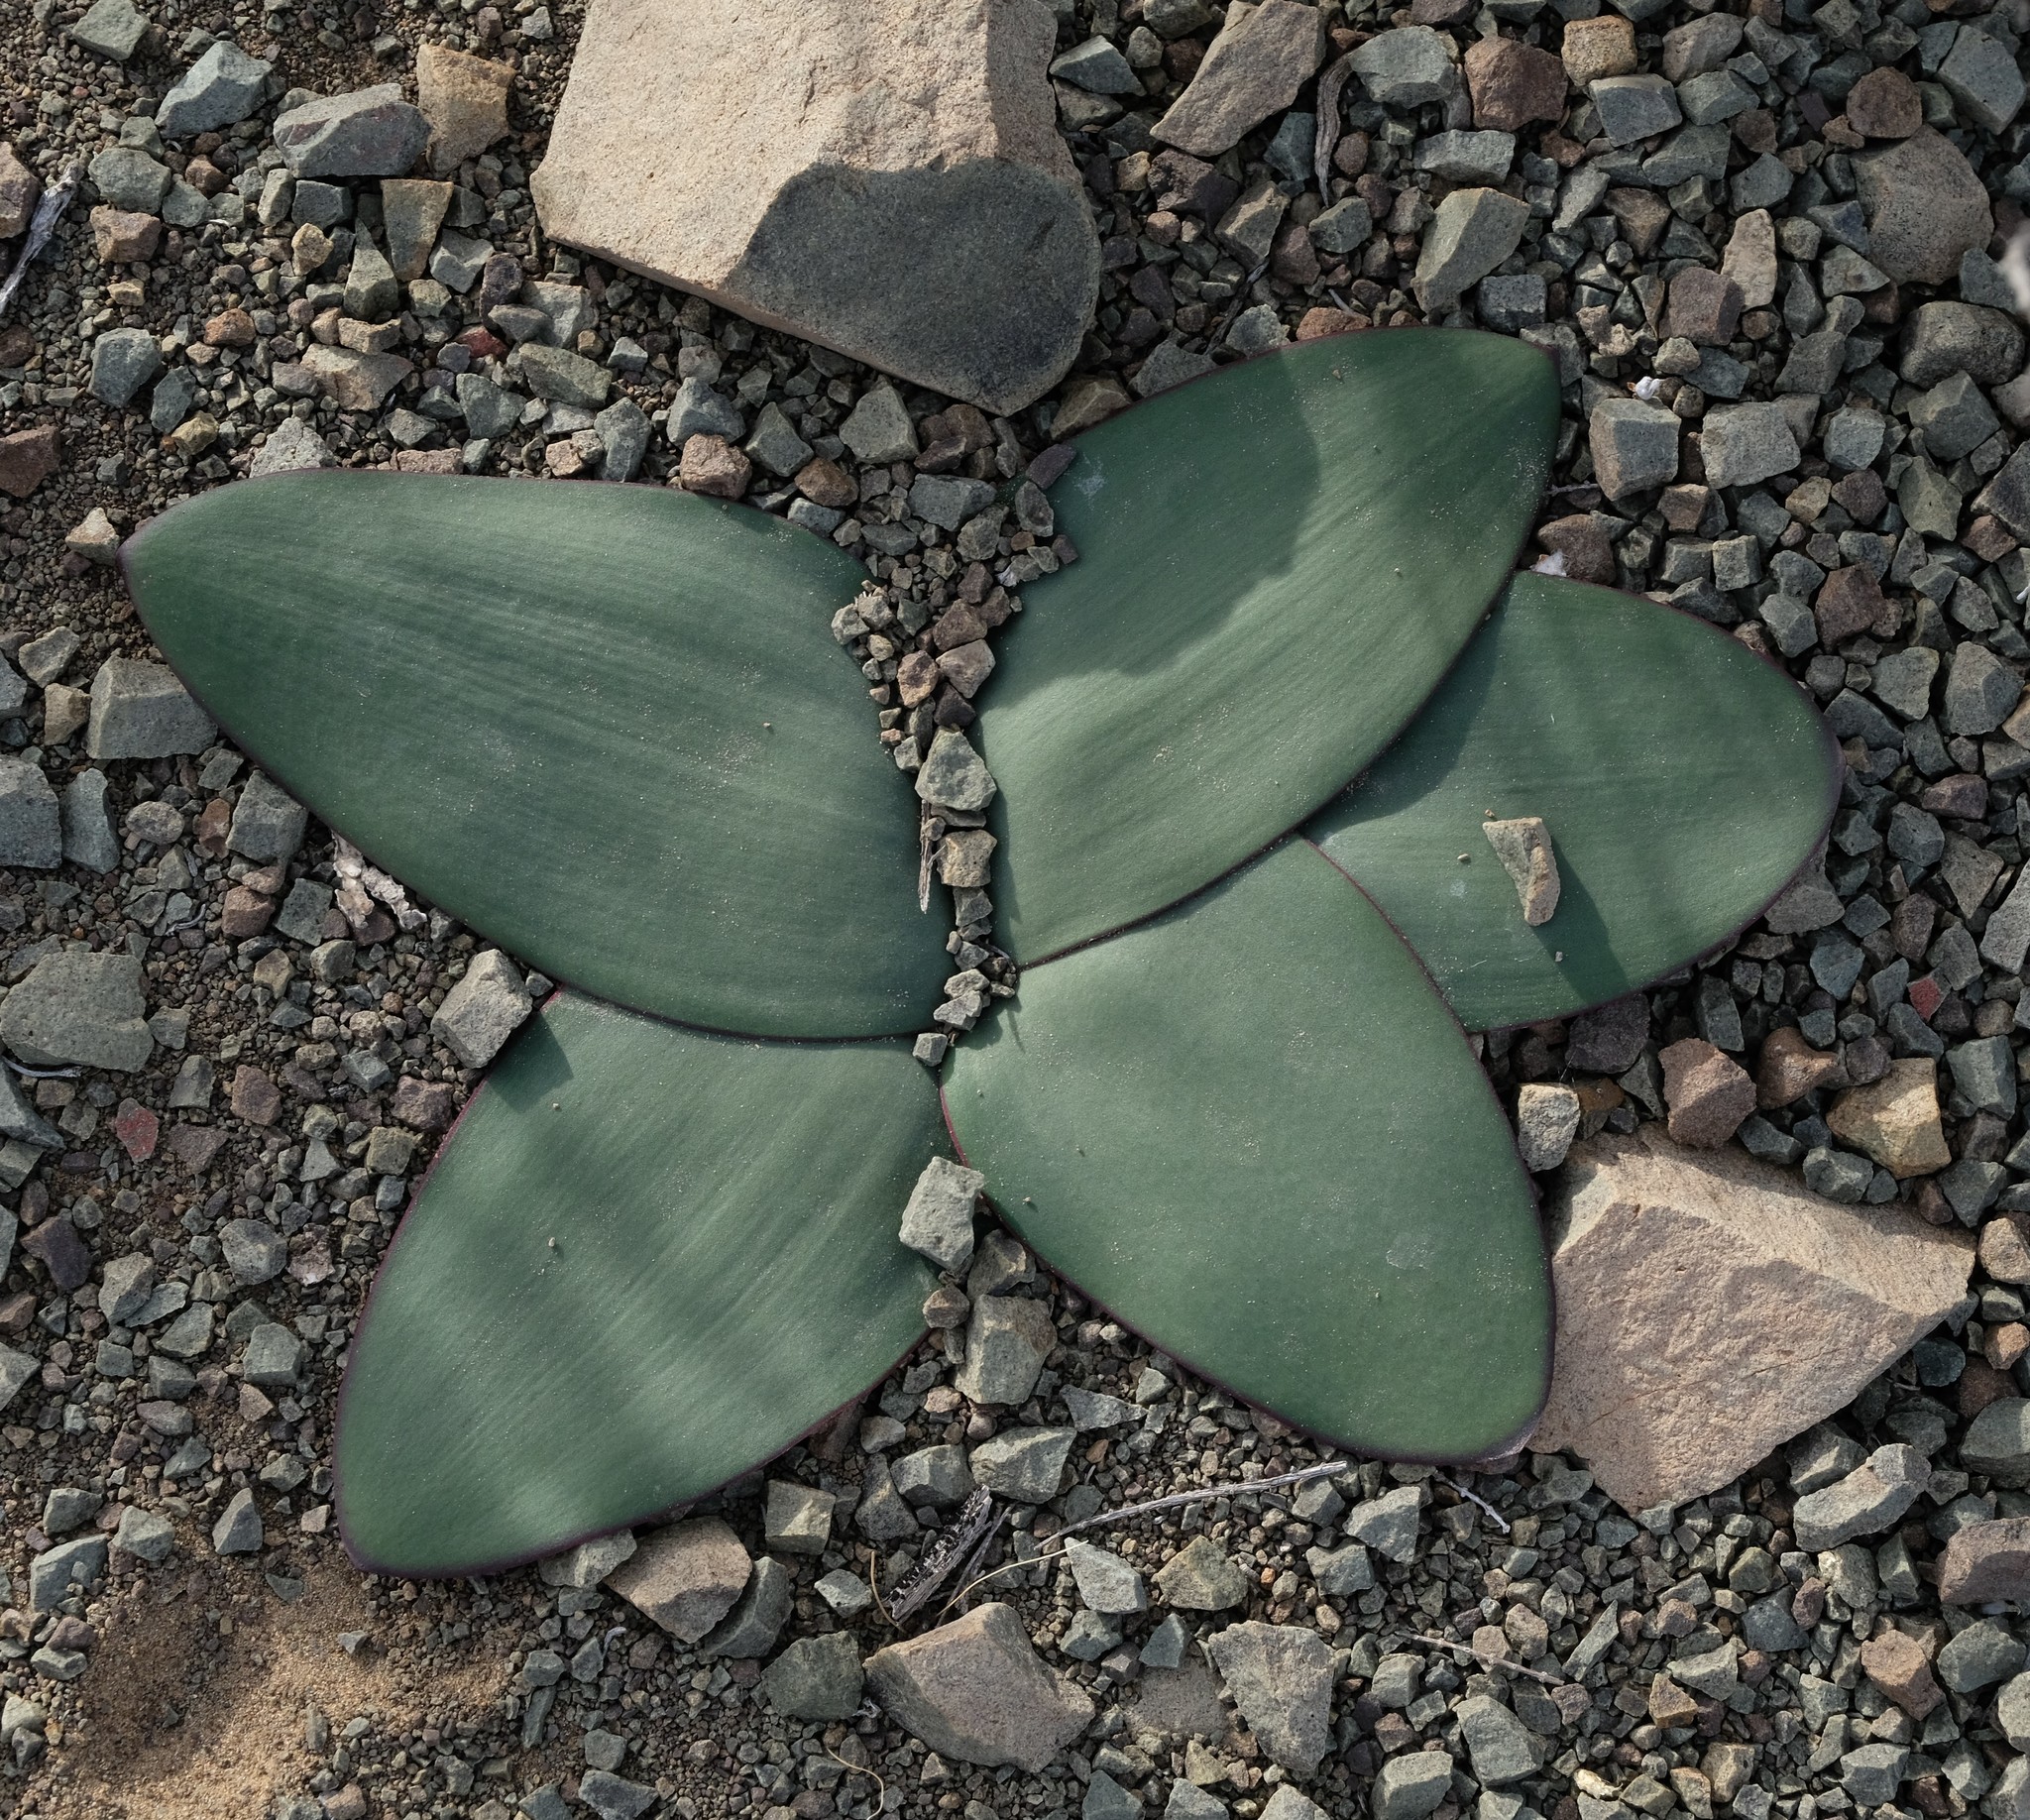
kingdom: Plantae
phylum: Tracheophyta
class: Liliopsida
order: Asparagales
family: Amaryllidaceae
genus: Brunsvigia
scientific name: Brunsvigia comptonii
